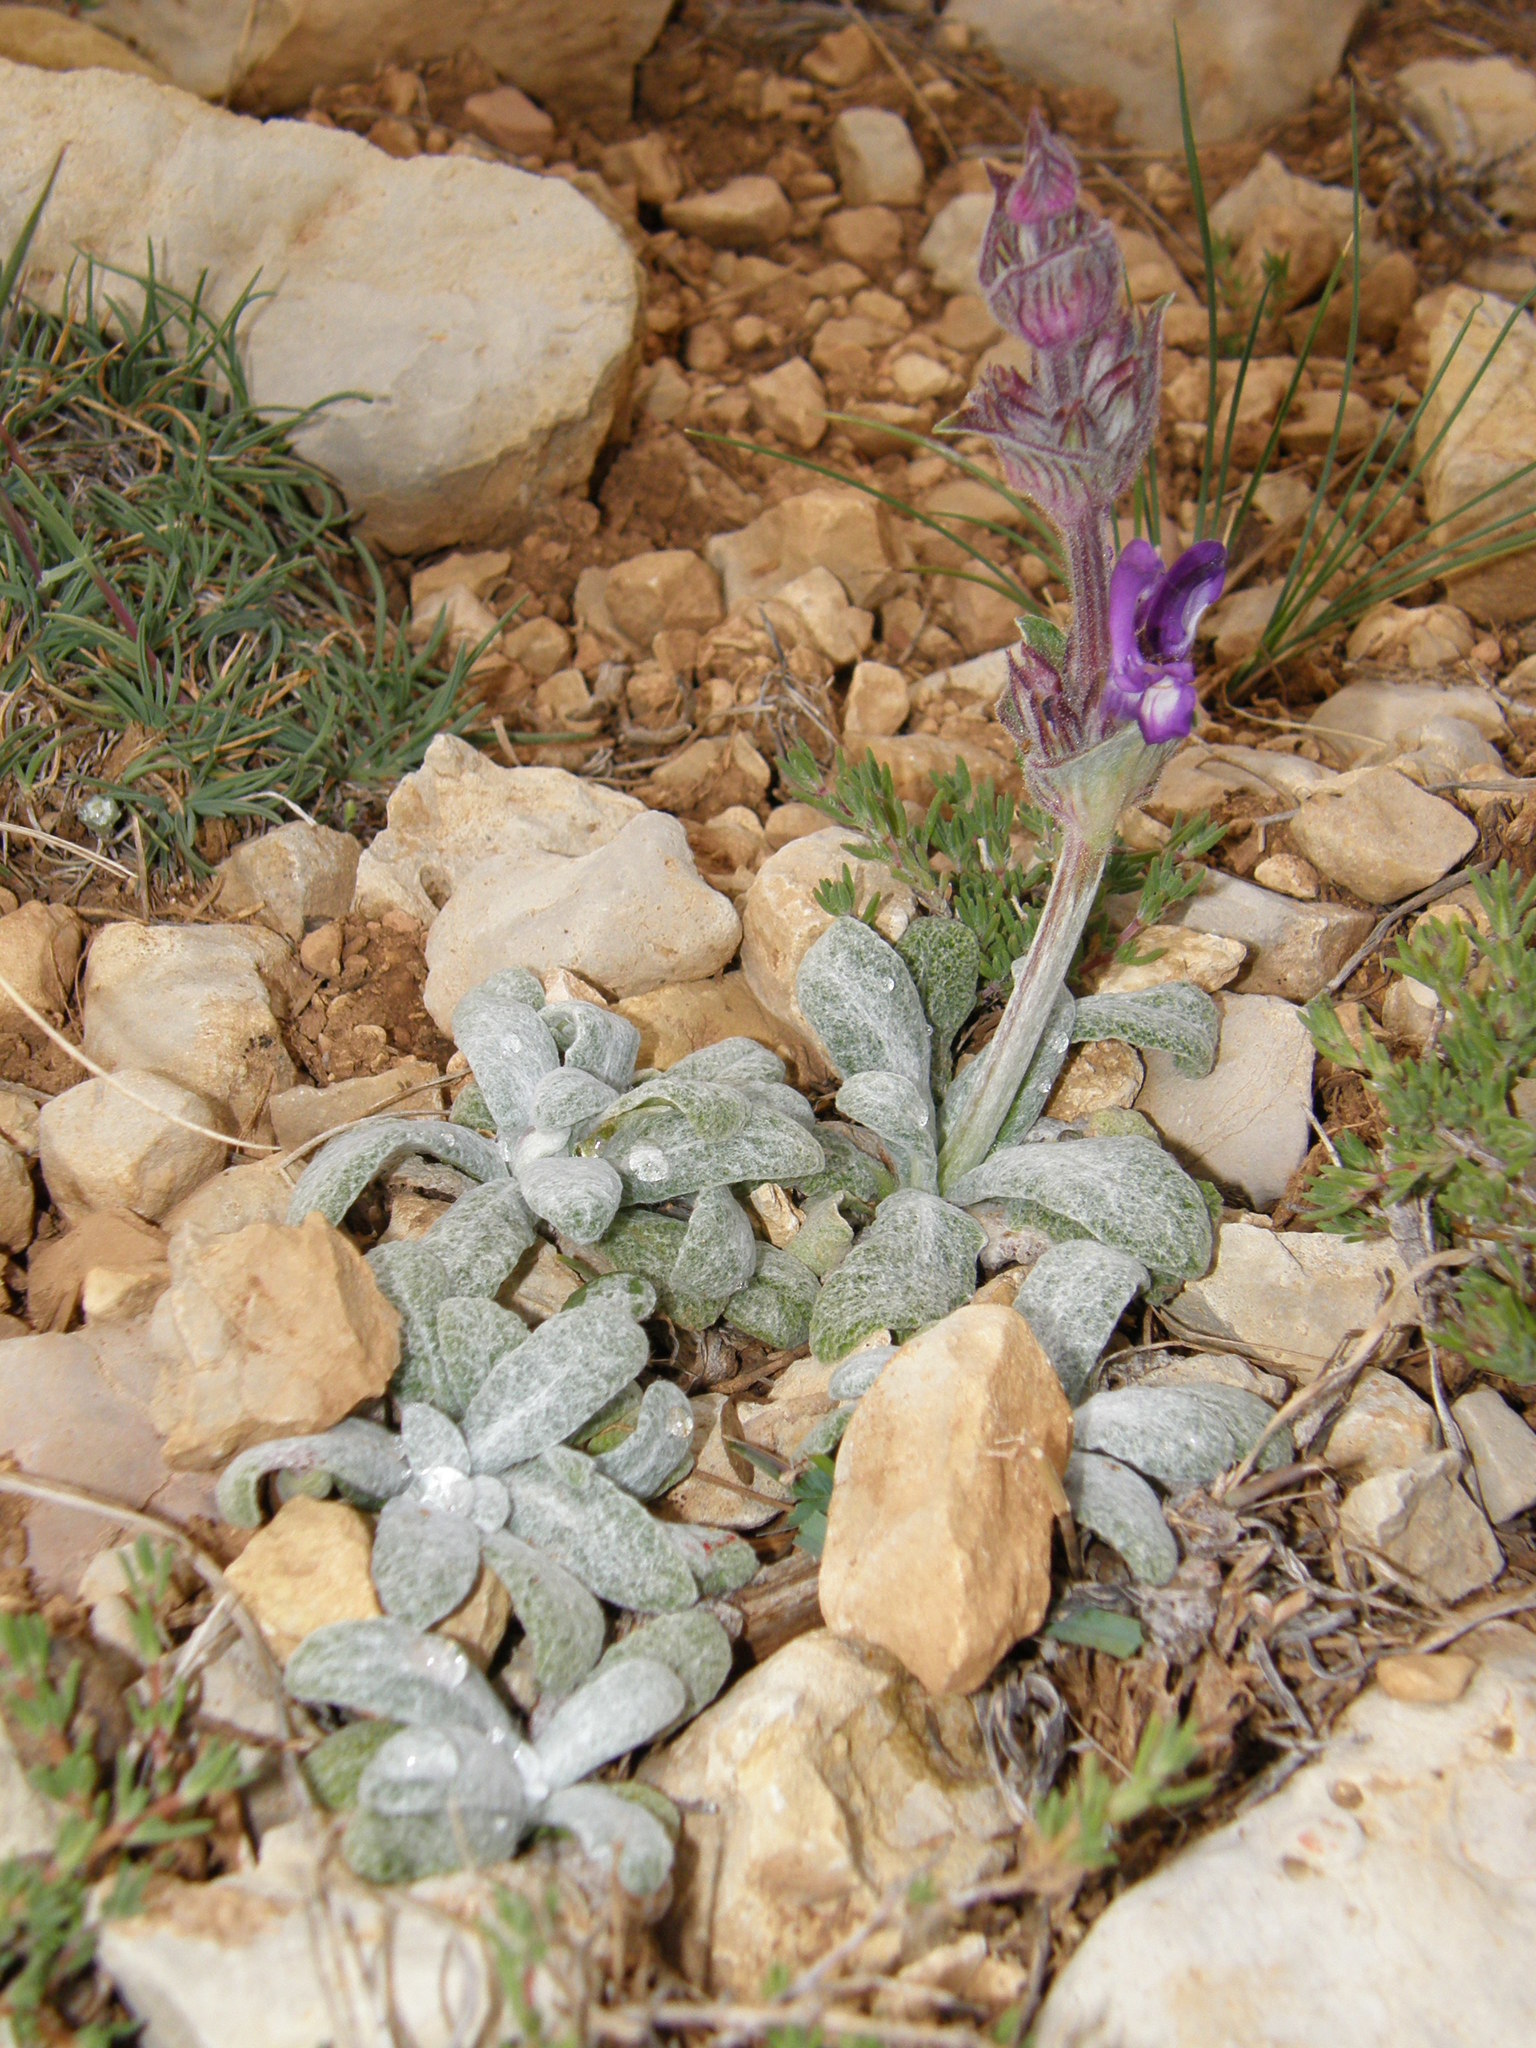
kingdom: Plantae
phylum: Tracheophyta
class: Magnoliopsida
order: Lamiales
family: Lamiaceae
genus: Salvia
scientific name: Salvia phlomoides
